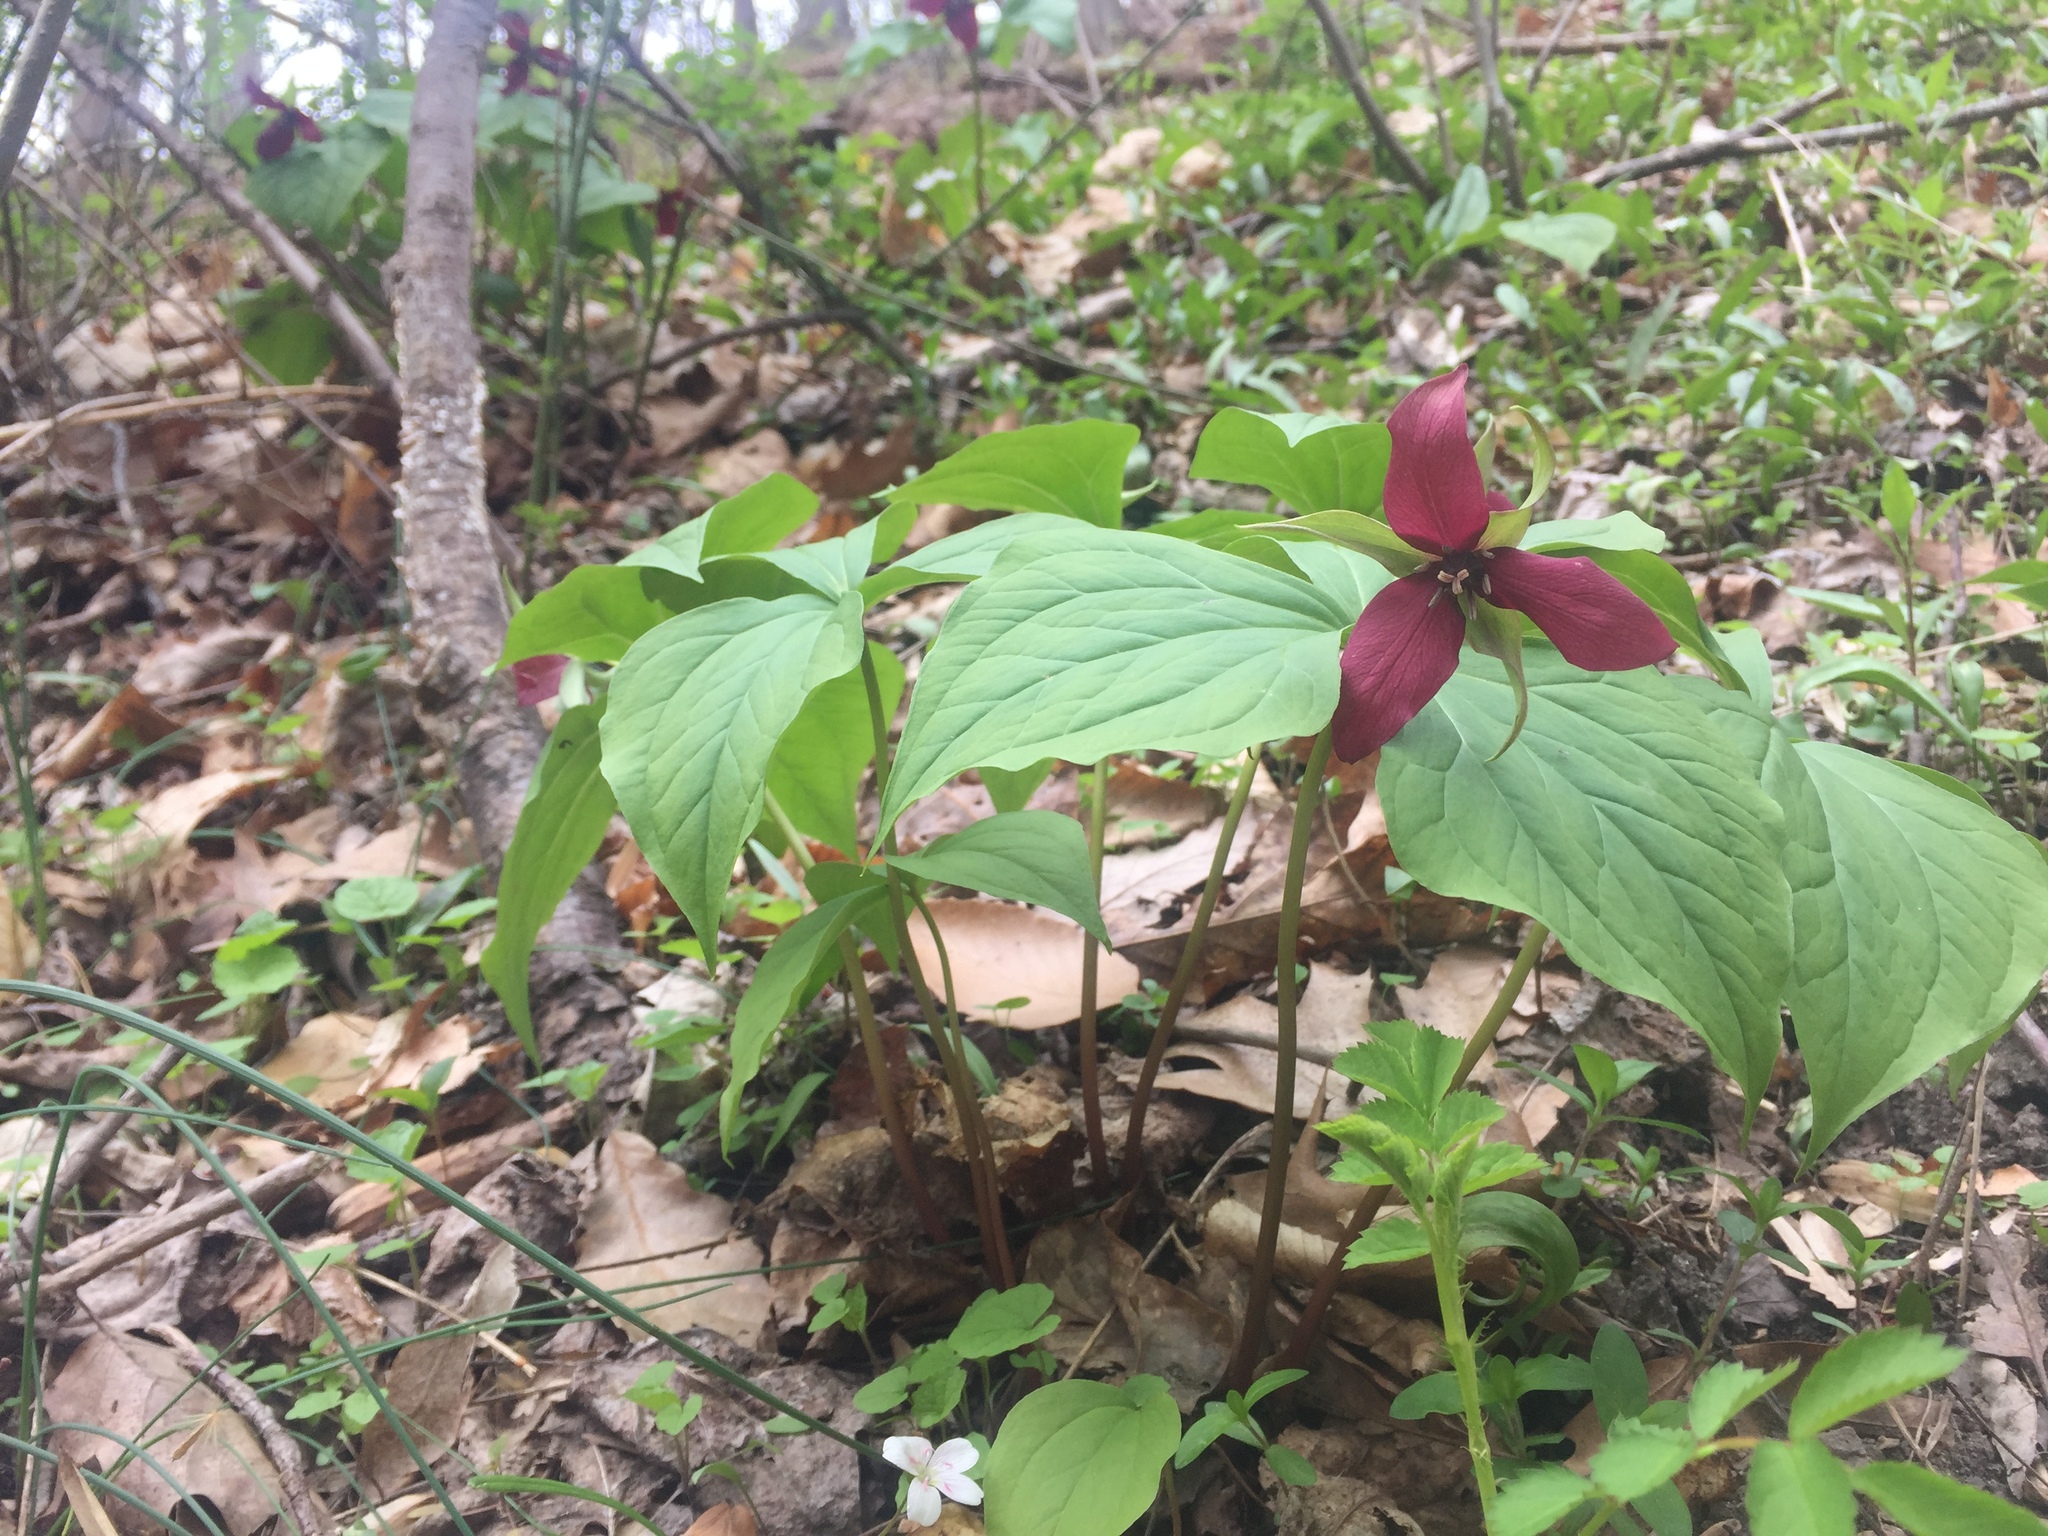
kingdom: Plantae
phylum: Tracheophyta
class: Liliopsida
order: Liliales
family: Melanthiaceae
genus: Trillium
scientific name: Trillium erectum
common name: Purple trillium
